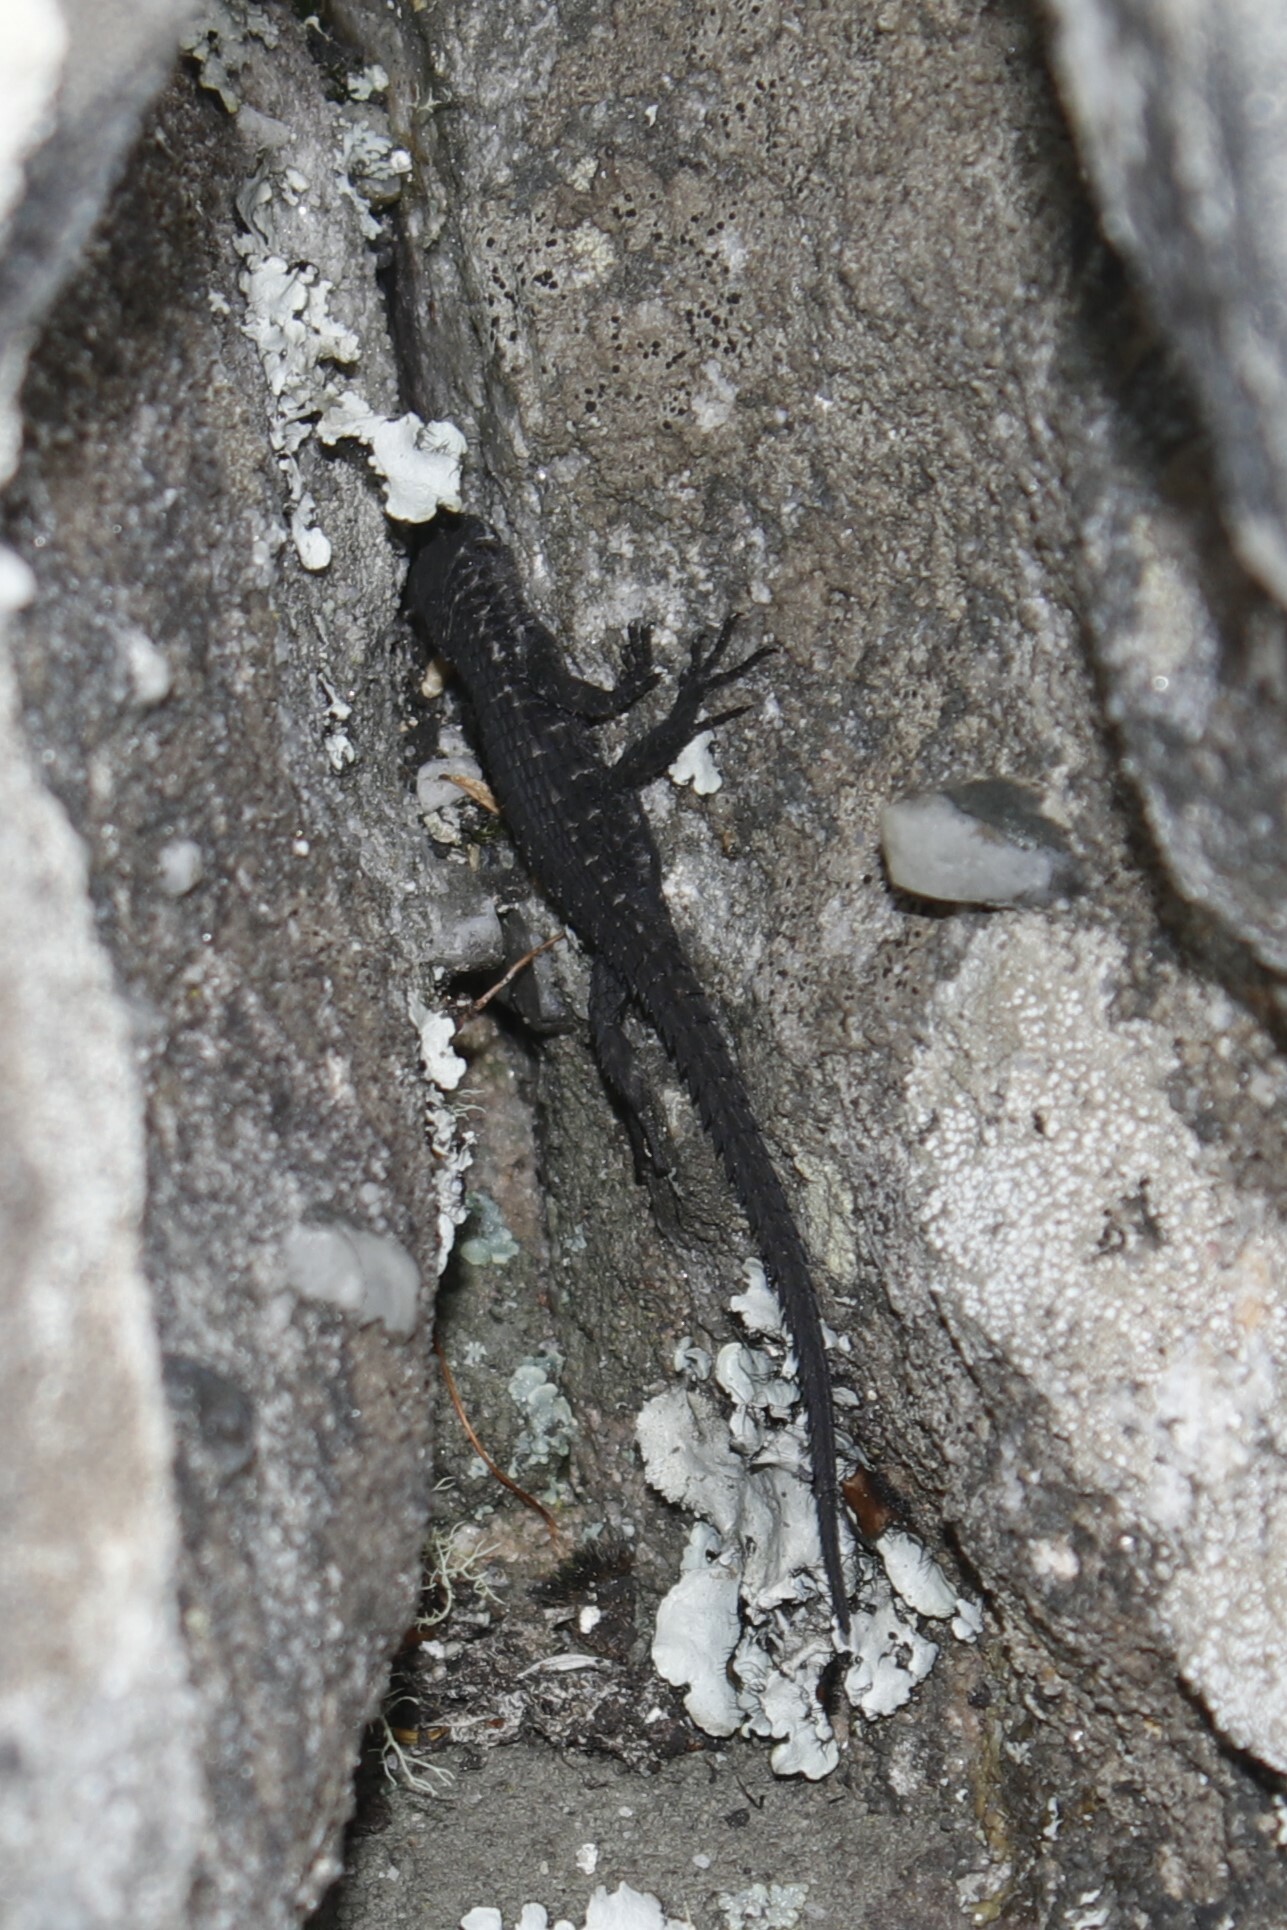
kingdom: Animalia
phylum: Chordata
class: Squamata
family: Cordylidae
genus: Cordylus
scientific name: Cordylus niger
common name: Black girdled lizard
